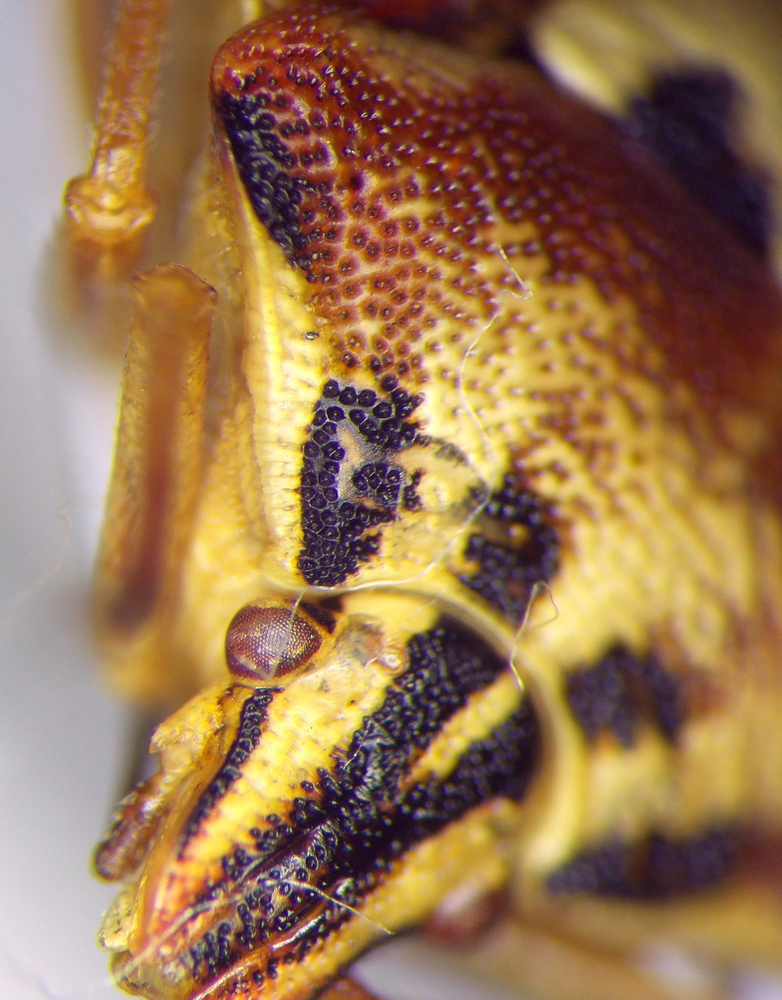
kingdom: Animalia
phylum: Arthropoda
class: Insecta
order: Hemiptera
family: Miridae
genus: Orthops
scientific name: Orthops kalmii
